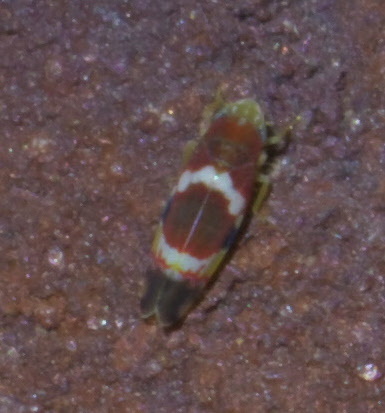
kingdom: Animalia
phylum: Arthropoda
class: Insecta
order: Hemiptera
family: Cicadellidae
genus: Erythroneura
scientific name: Erythroneura vitis
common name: Grapevine leafhopper
